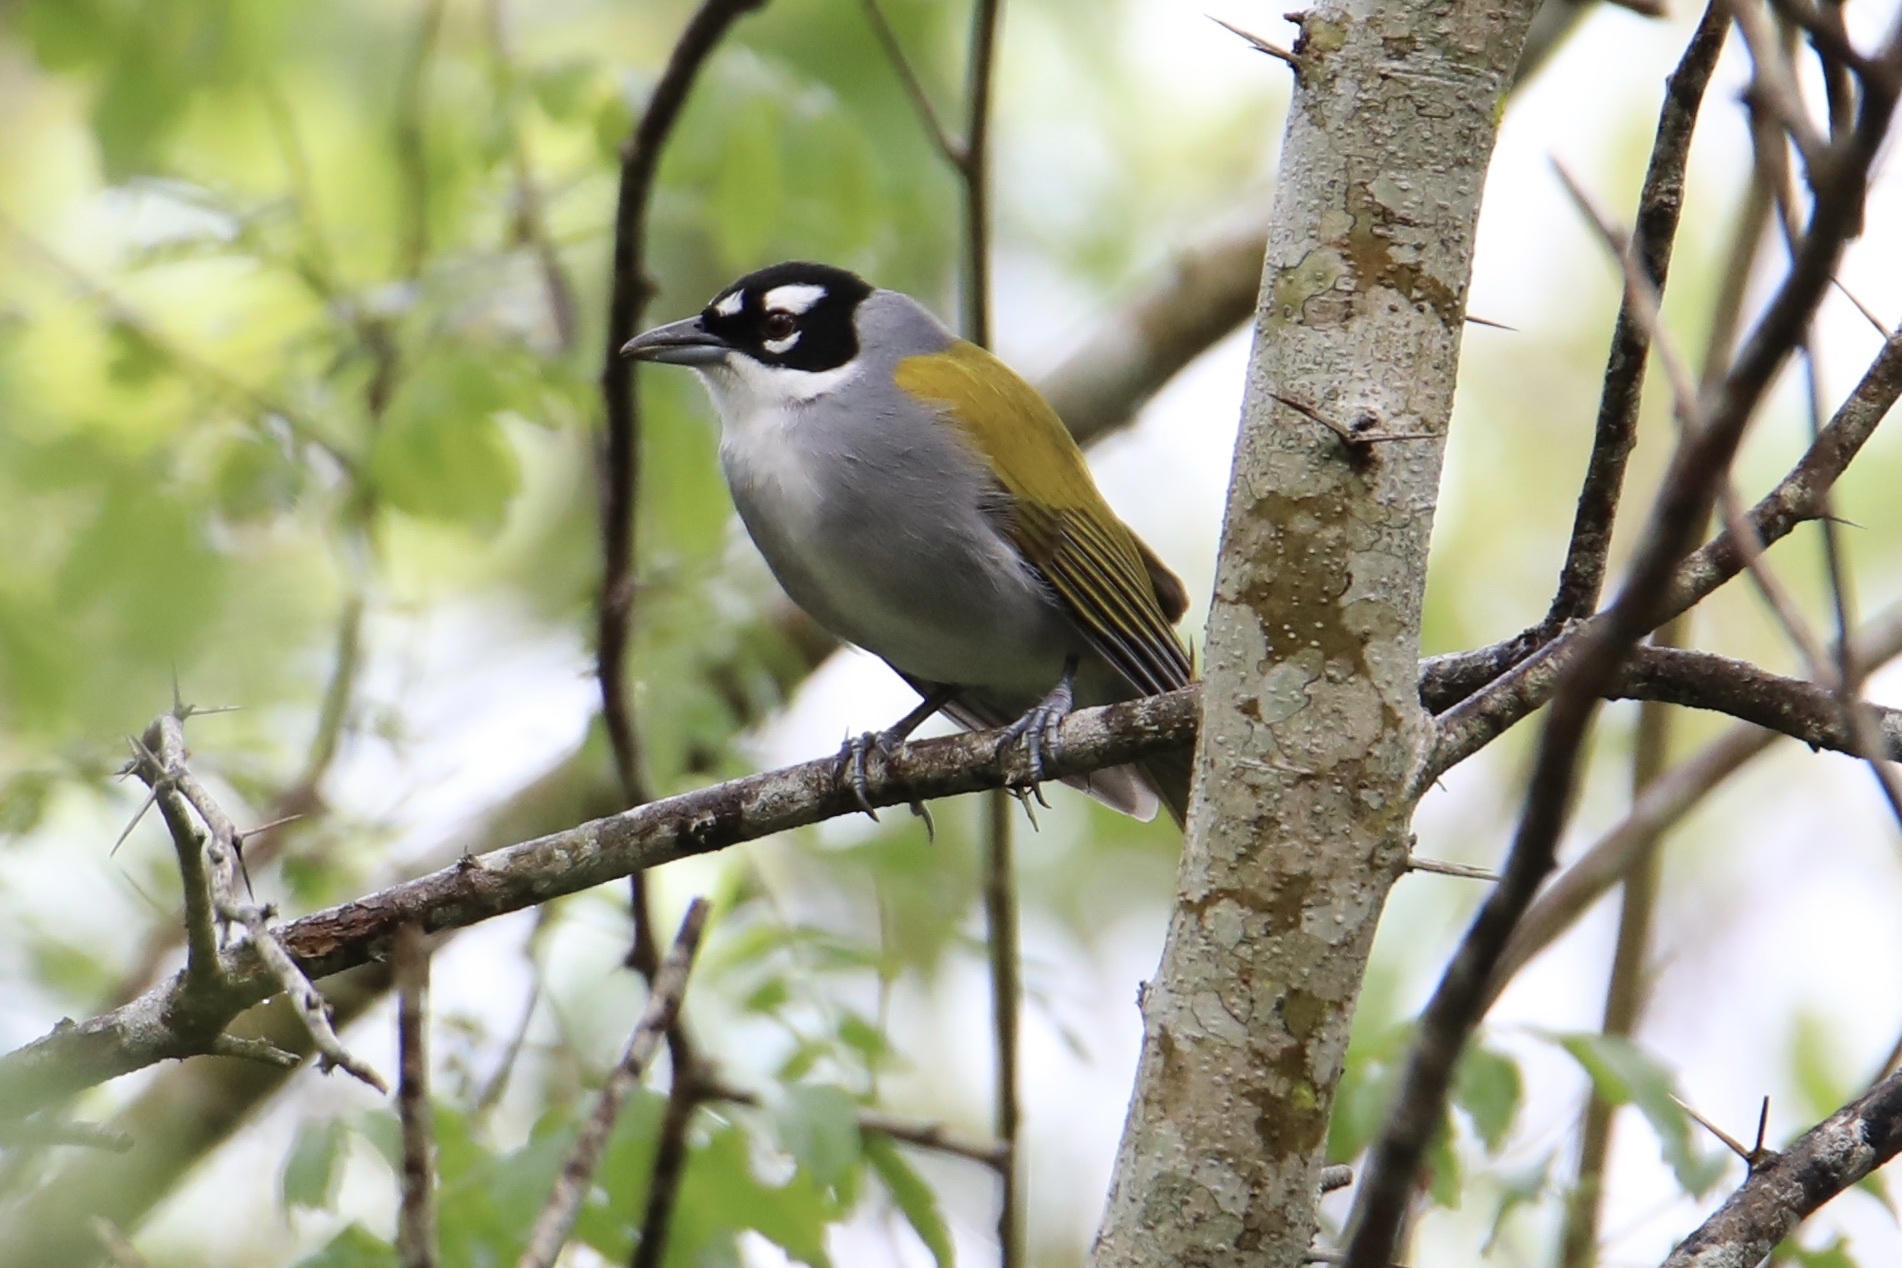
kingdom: Animalia
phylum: Chordata
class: Aves
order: Passeriformes
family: Phaenicophilidae
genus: Phaenicophilus
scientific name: Phaenicophilus palmarum
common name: Black-crowned palm-tanager
